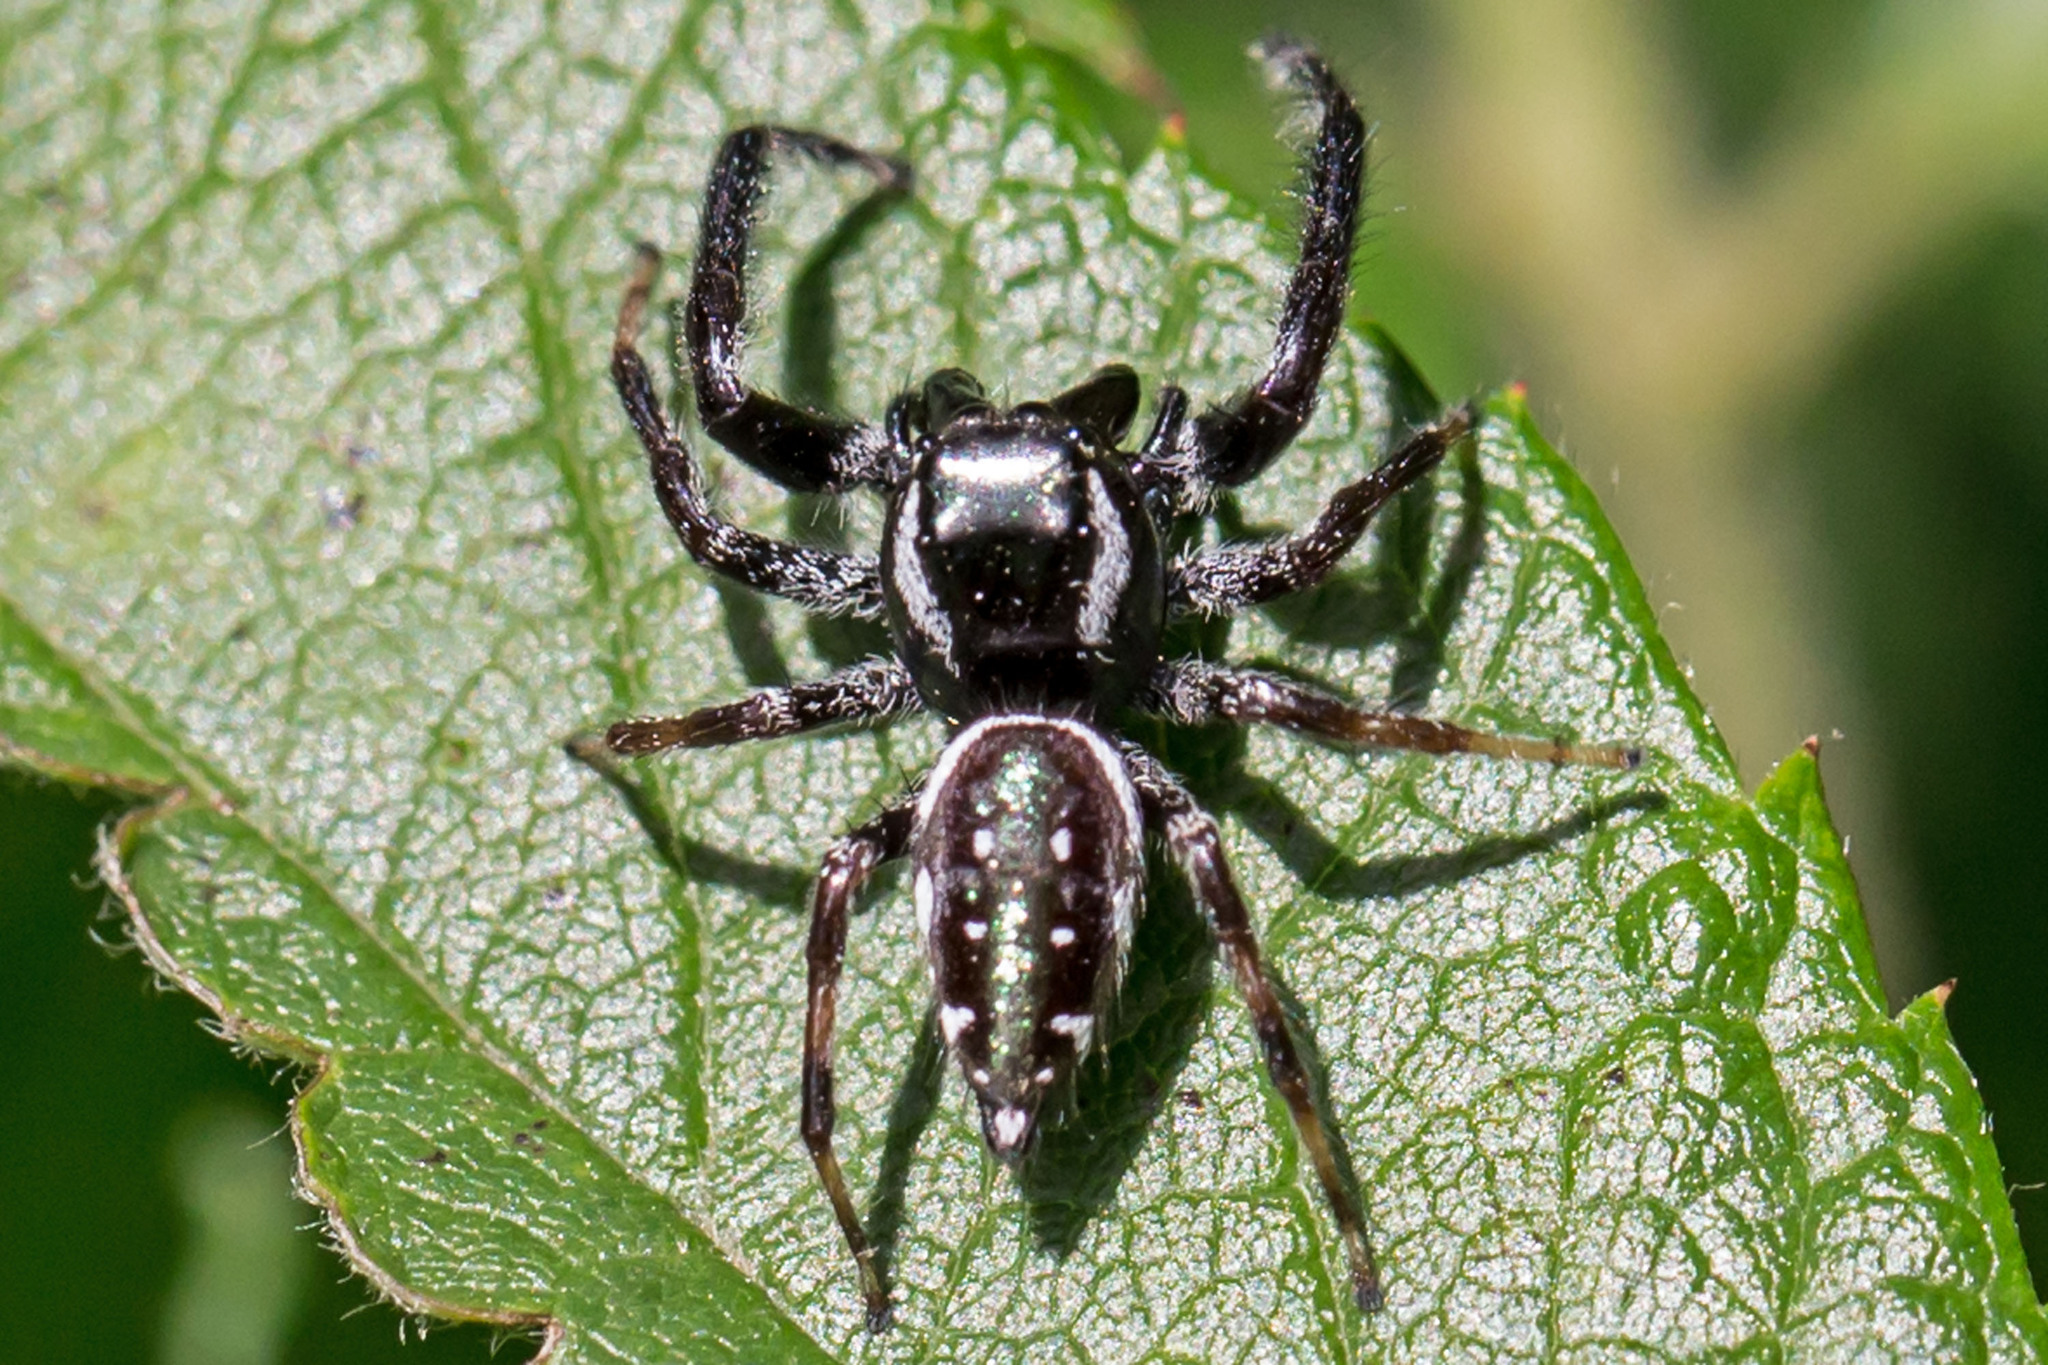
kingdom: Animalia
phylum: Arthropoda
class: Arachnida
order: Araneae
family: Salticidae
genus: Paraphidippus
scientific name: Paraphidippus aurantius
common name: Jumping spiders
